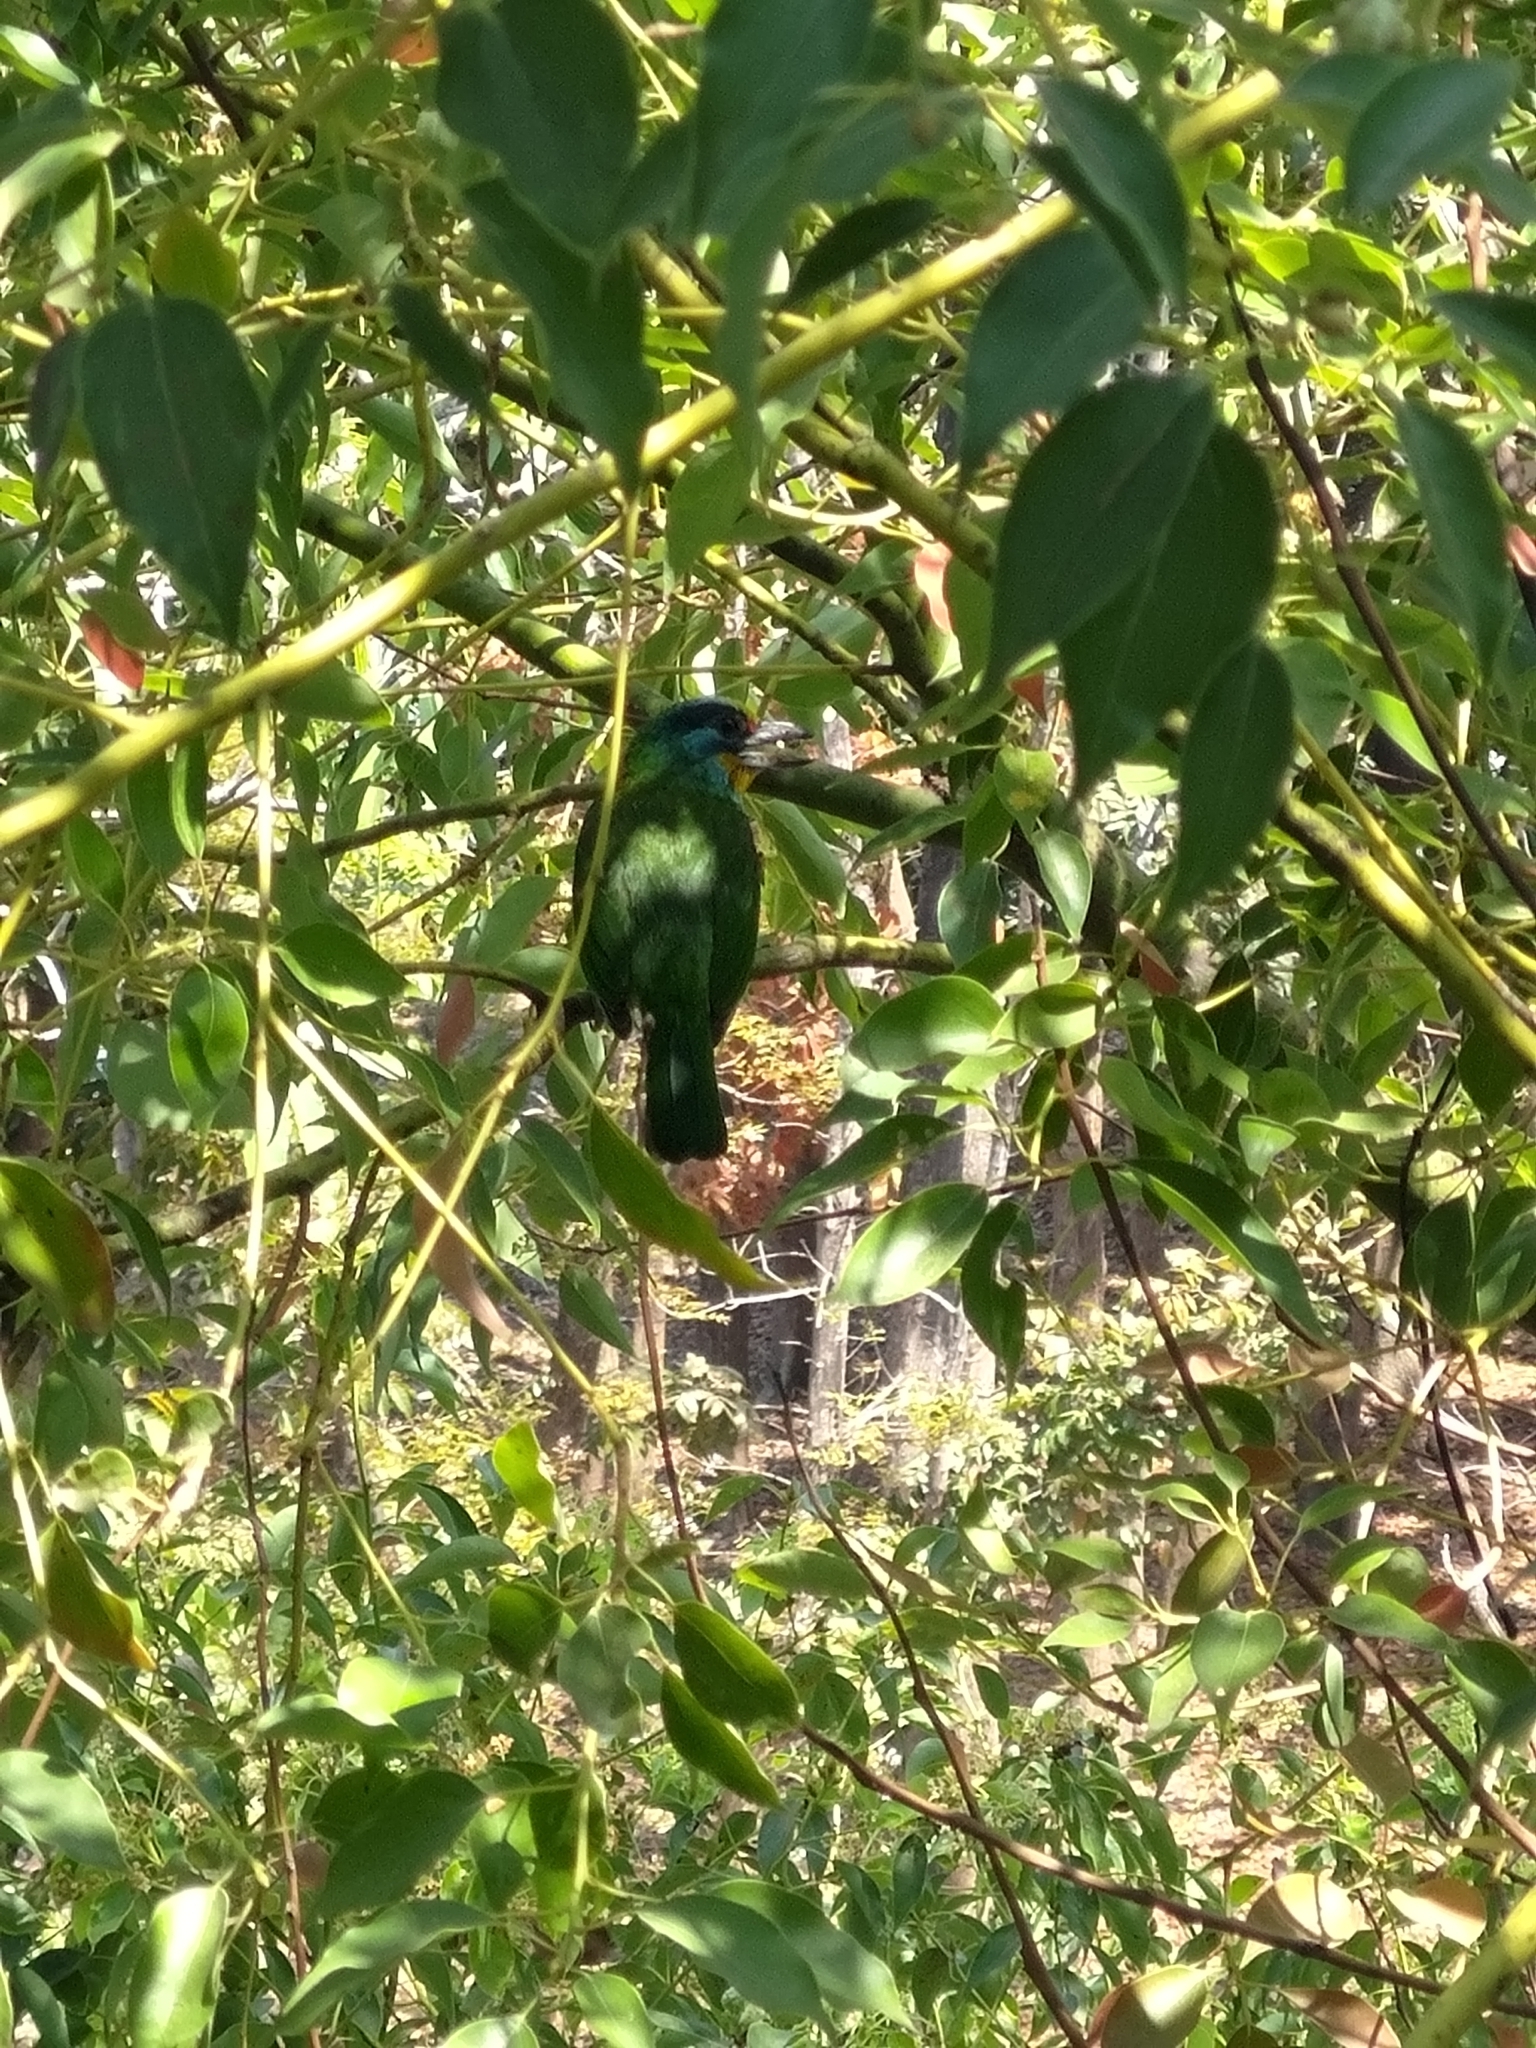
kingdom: Animalia
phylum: Chordata
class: Aves
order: Piciformes
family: Megalaimidae
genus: Psilopogon
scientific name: Psilopogon nuchalis
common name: Taiwan barbet
